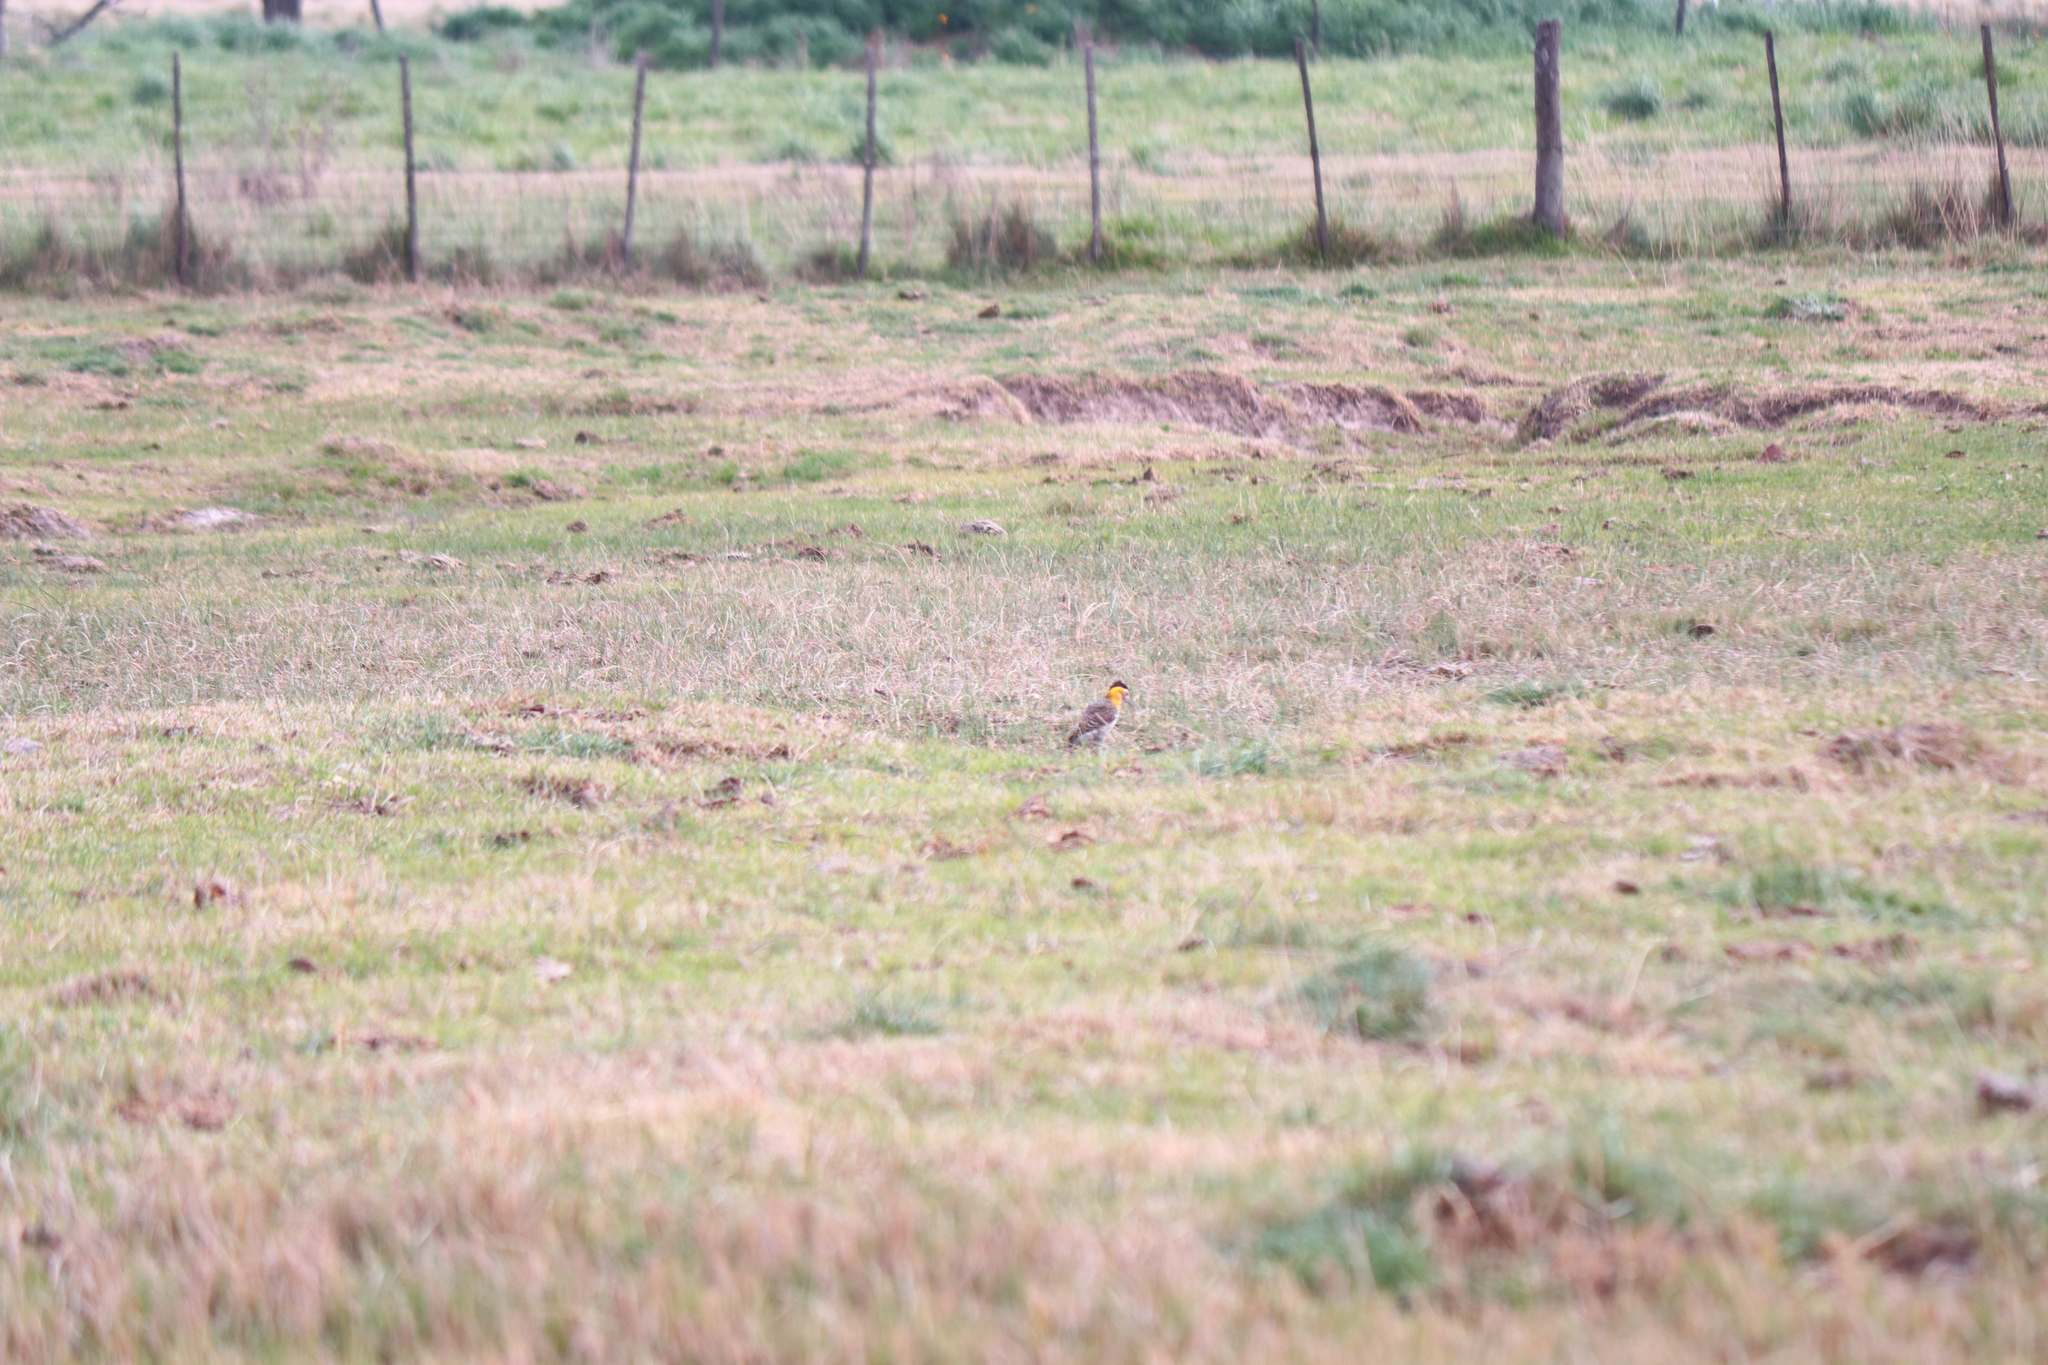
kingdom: Animalia
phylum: Chordata
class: Aves
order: Piciformes
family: Picidae
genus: Colaptes
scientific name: Colaptes campestris
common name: Campo flicker
